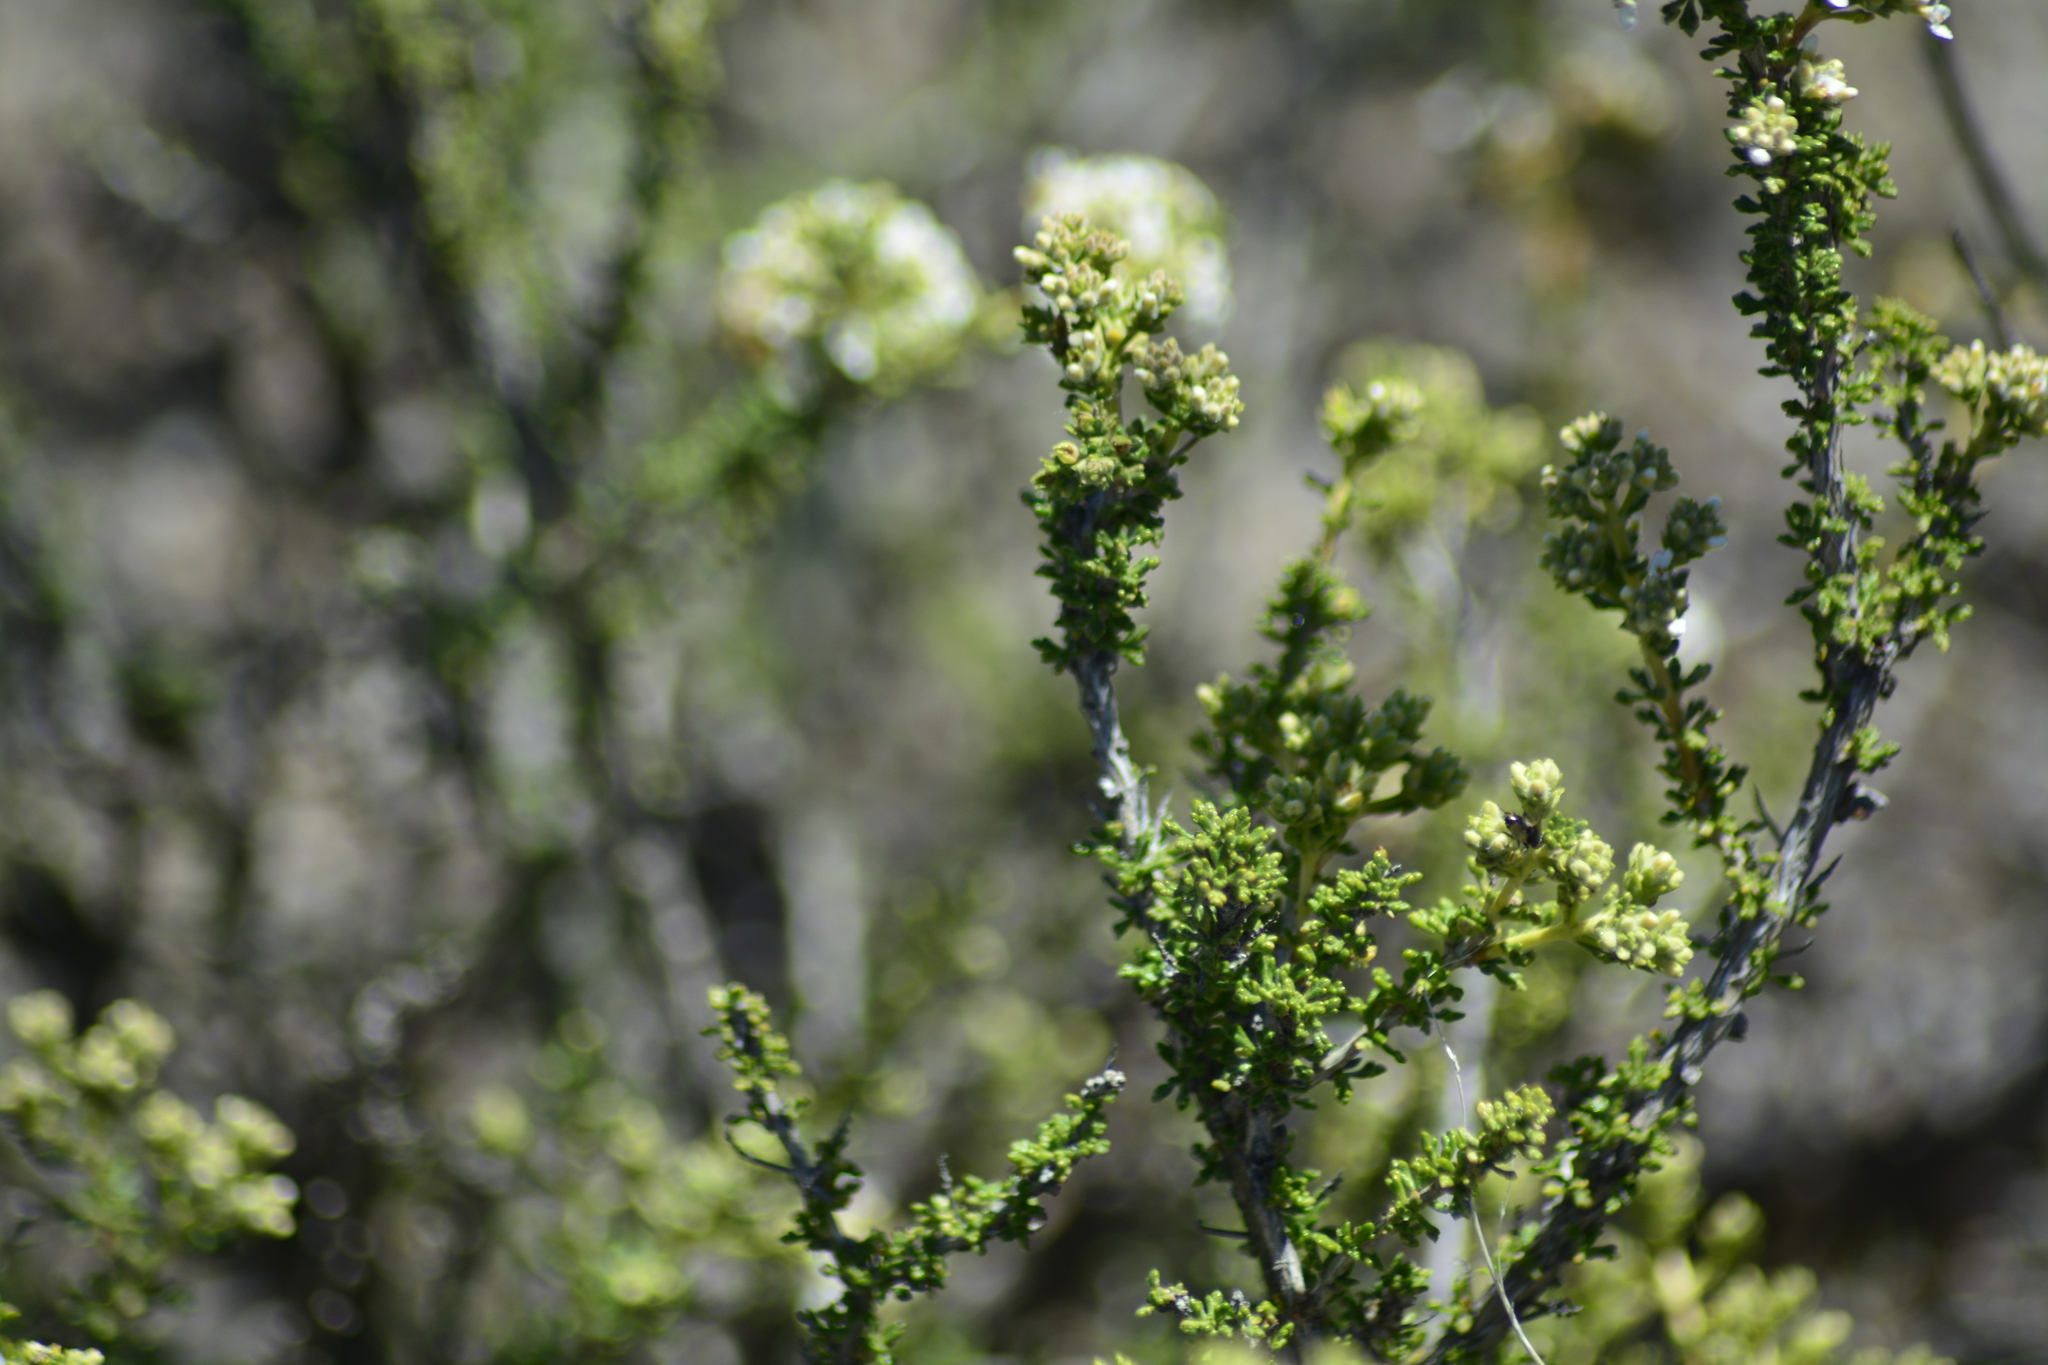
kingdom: Plantae
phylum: Tracheophyta
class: Magnoliopsida
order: Lamiales
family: Verbenaceae
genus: Acantholippia
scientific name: Acantholippia seriphioides
